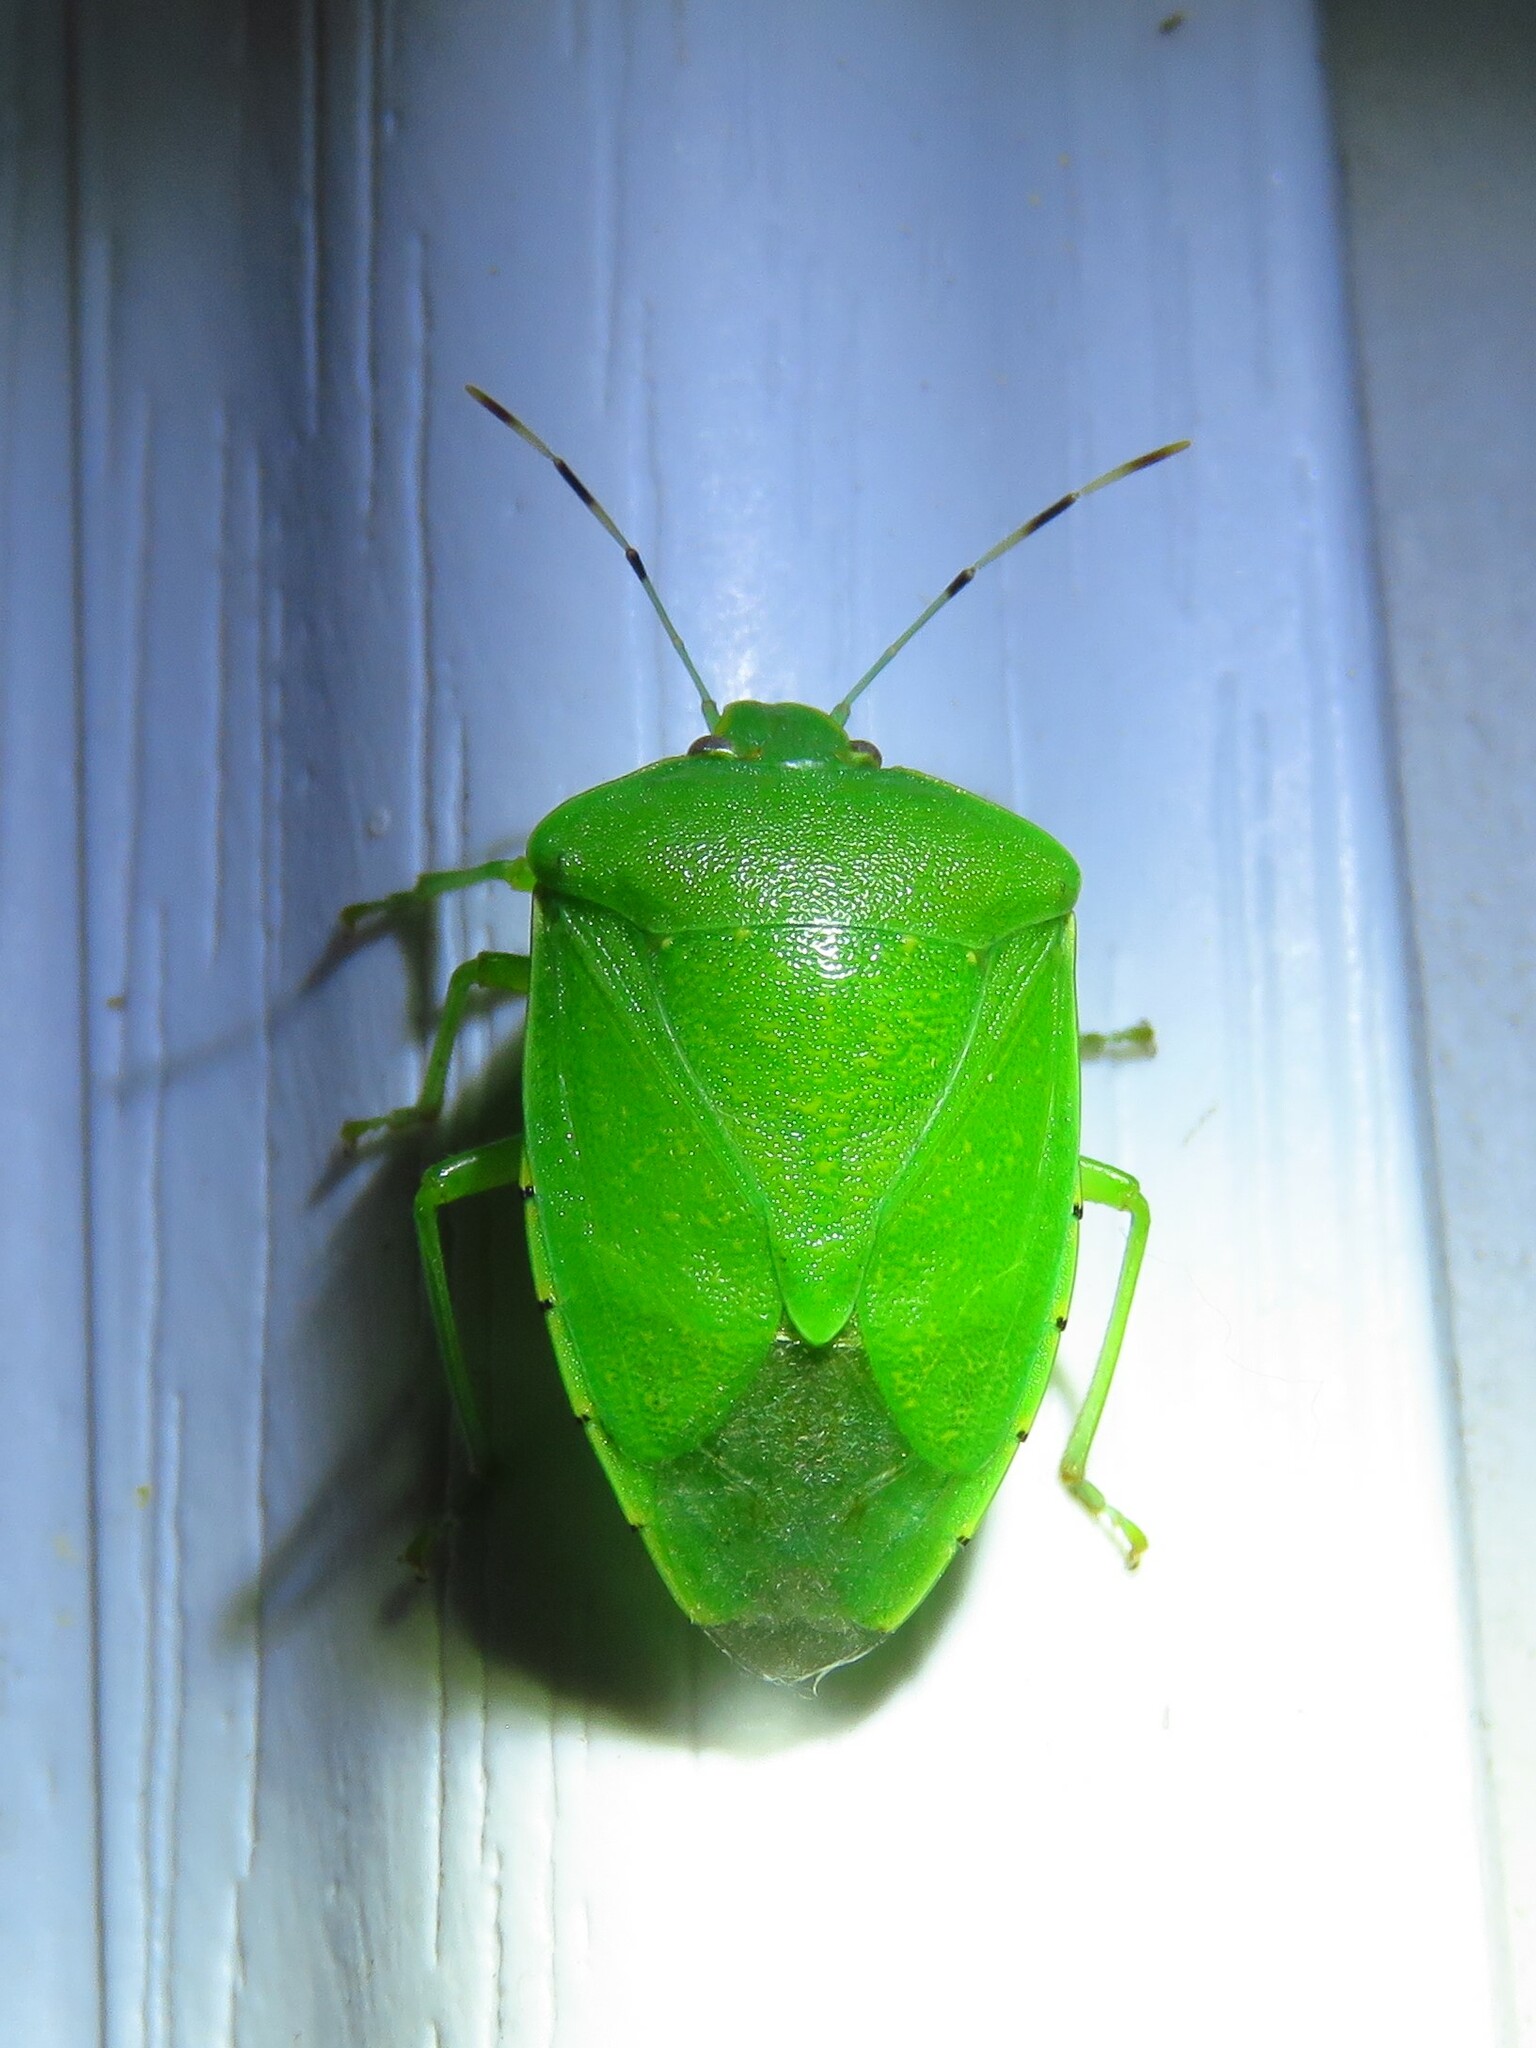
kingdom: Animalia
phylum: Arthropoda
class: Insecta
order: Hemiptera
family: Pentatomidae
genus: Chinavia
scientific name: Chinavia hilaris
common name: Green stink bug
